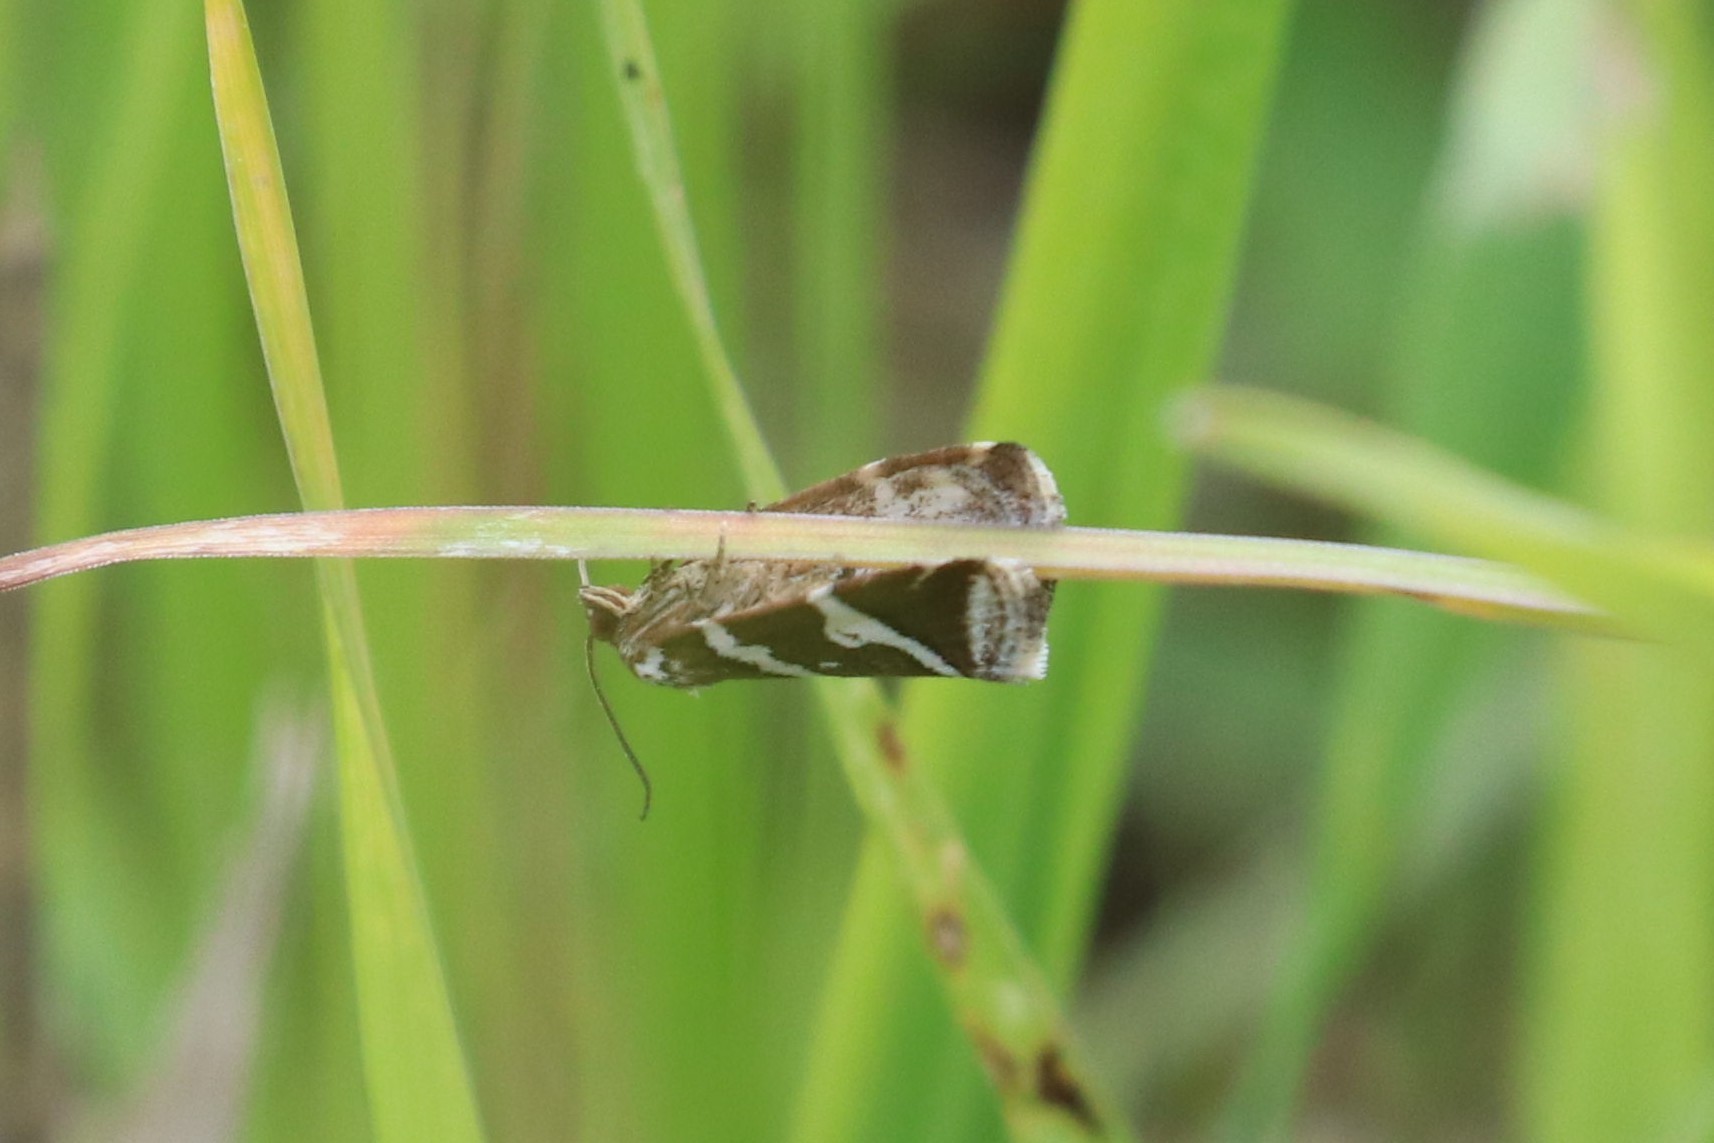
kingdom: Animalia
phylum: Arthropoda
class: Insecta
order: Lepidoptera
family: Noctuidae
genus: Deltote
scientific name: Deltote bankiana
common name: Silver barred
